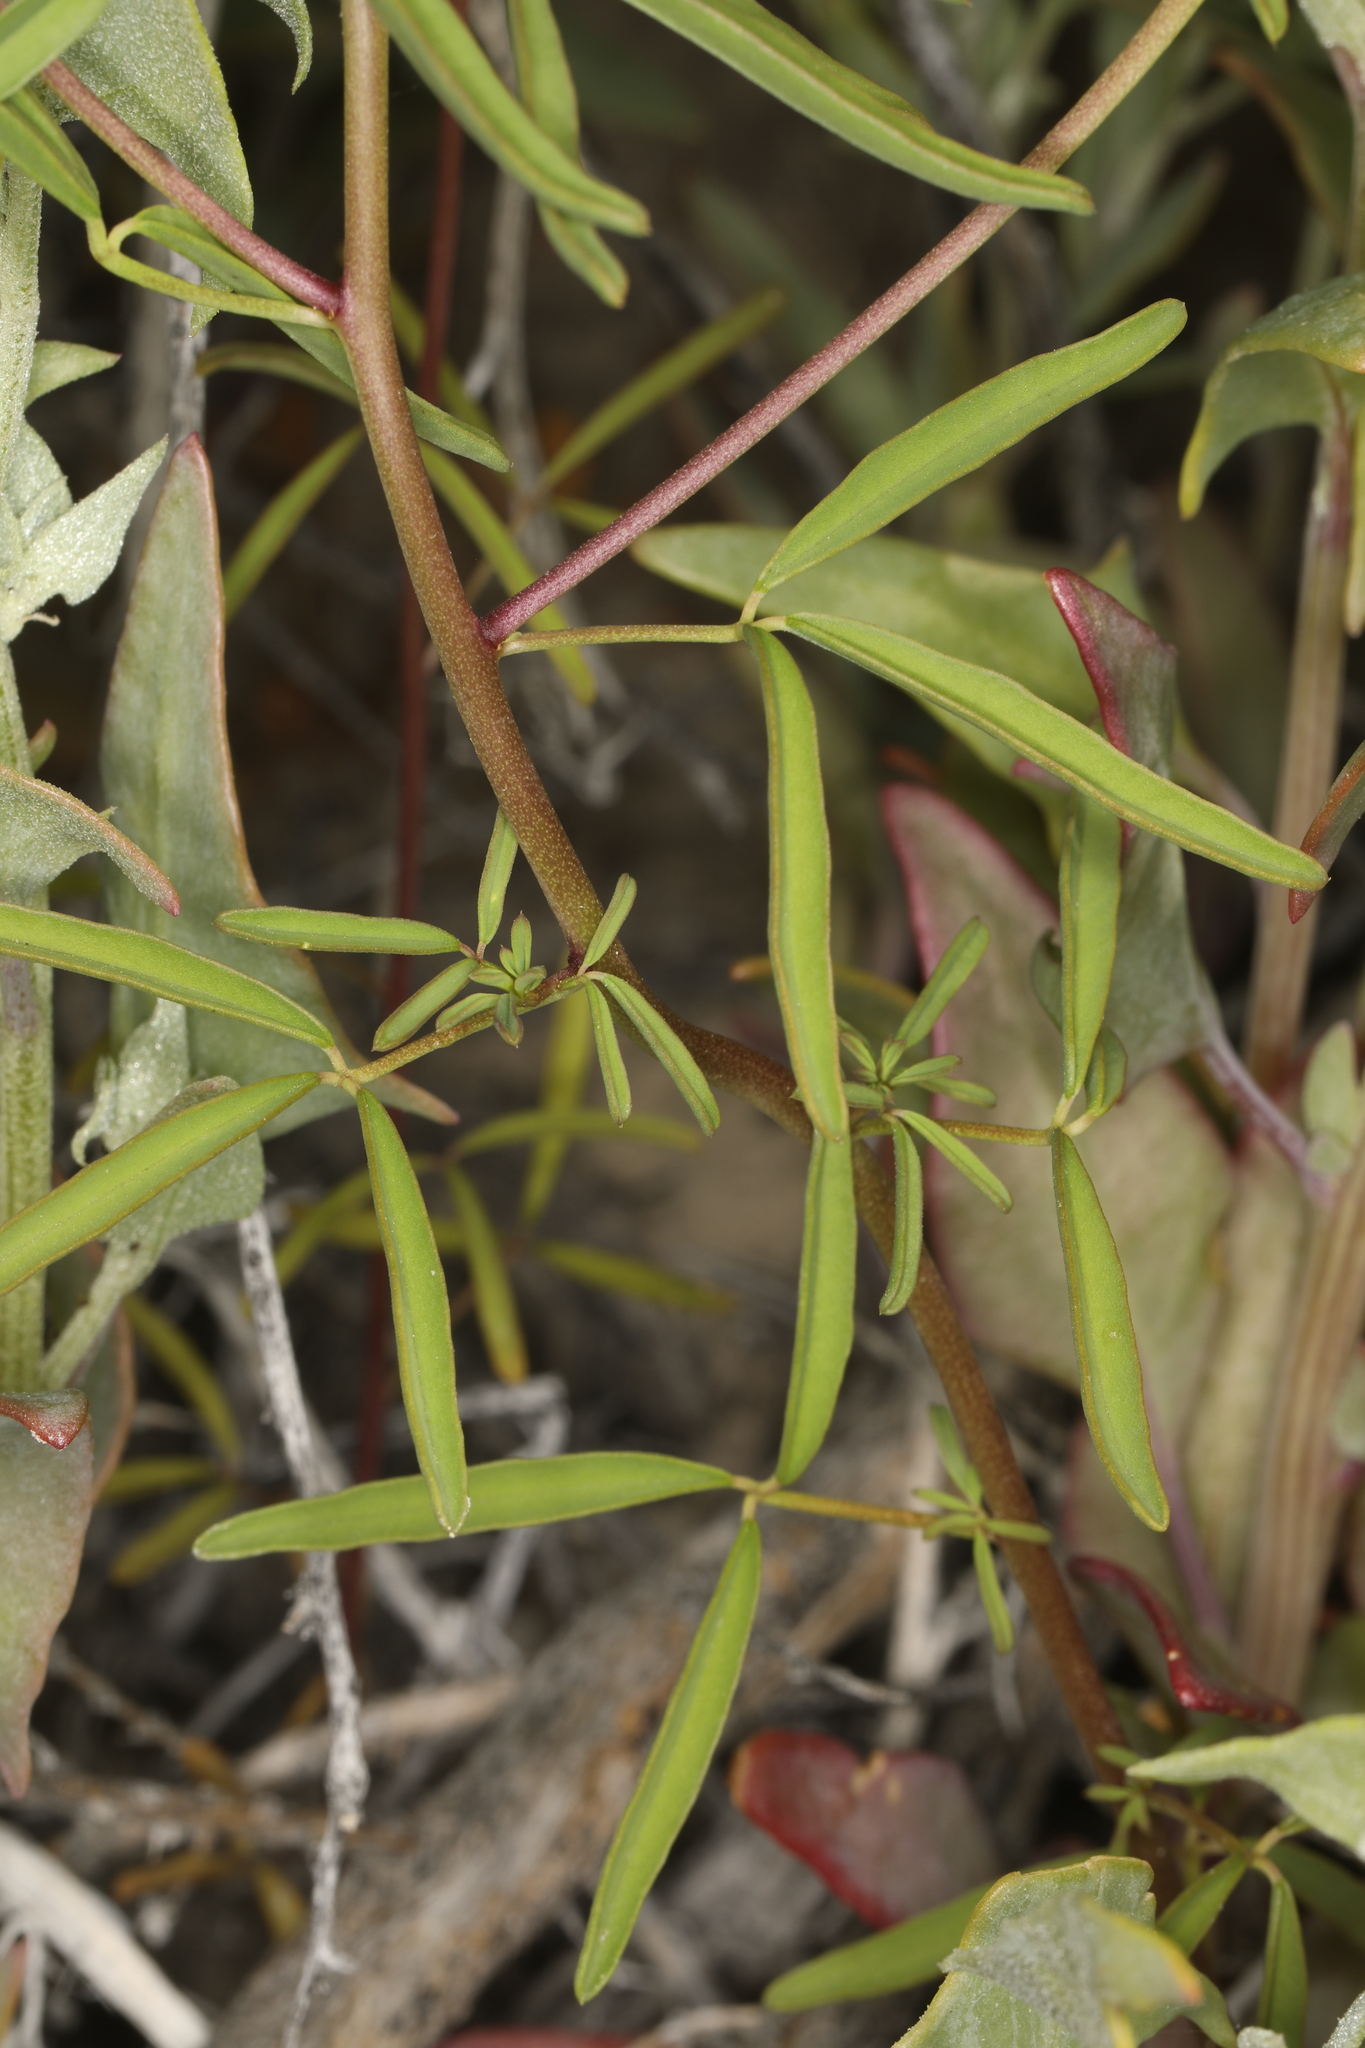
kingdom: Plantae
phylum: Tracheophyta
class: Magnoliopsida
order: Brassicales
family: Cleomaceae
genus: Cleomella
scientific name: Cleomella plocasperma
